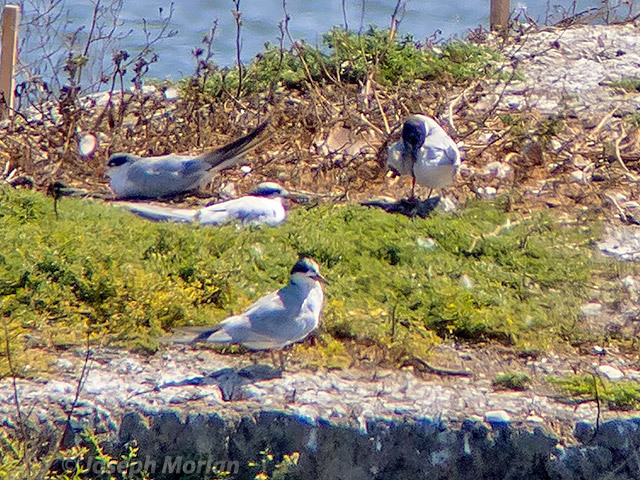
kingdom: Animalia
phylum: Chordata
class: Aves
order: Charadriiformes
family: Laridae
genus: Sterna
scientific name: Sterna forsteri
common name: Forster's tern
